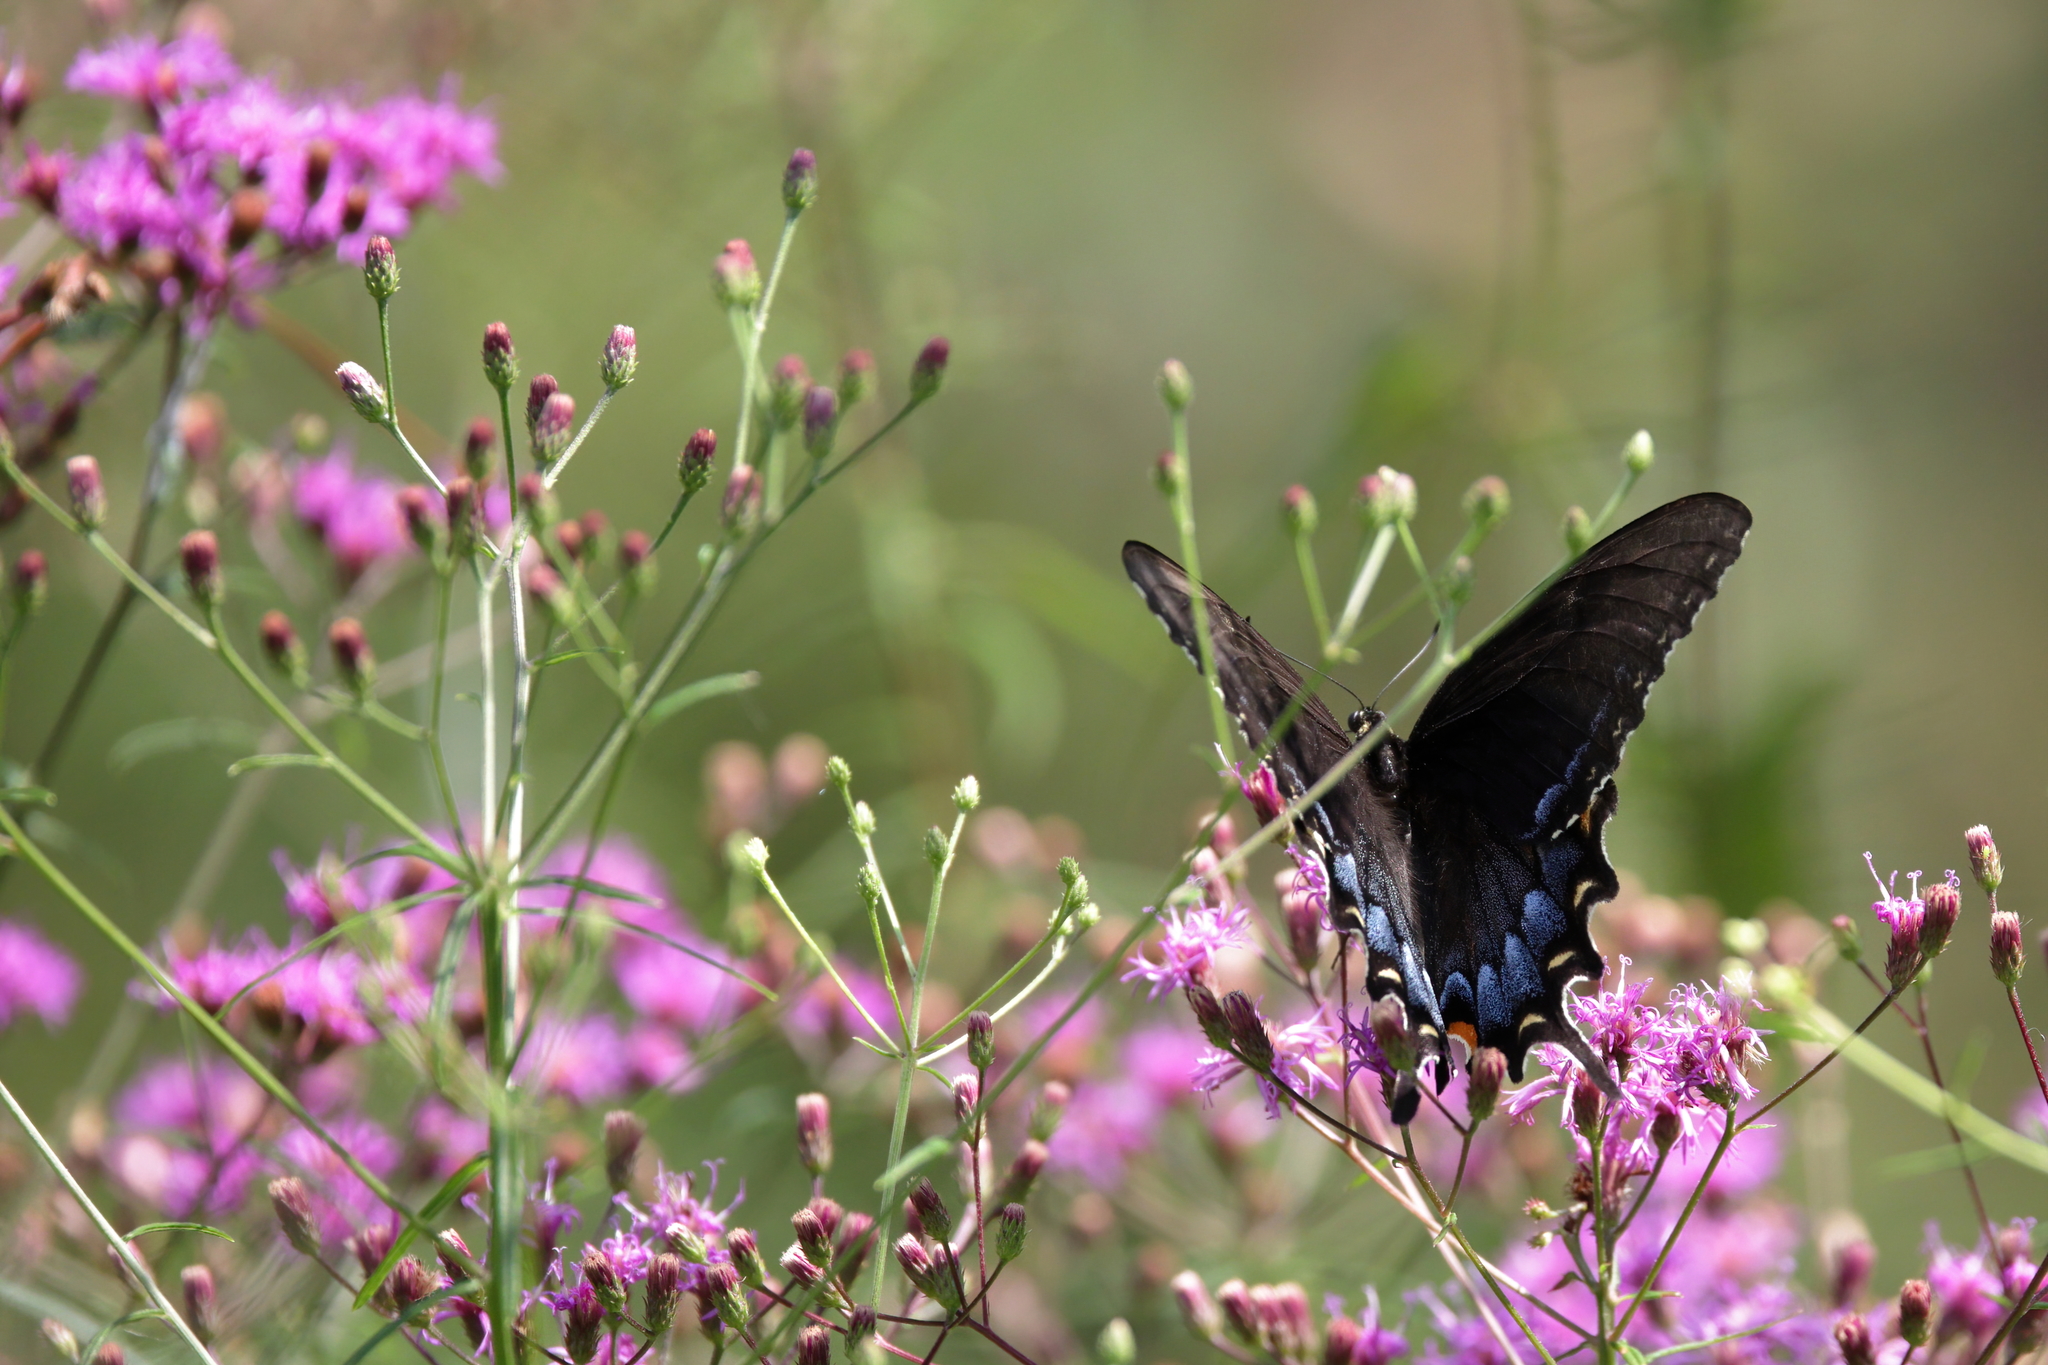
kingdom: Animalia
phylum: Arthropoda
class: Insecta
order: Lepidoptera
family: Papilionidae
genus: Papilio
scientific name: Papilio glaucus
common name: Tiger swallowtail
